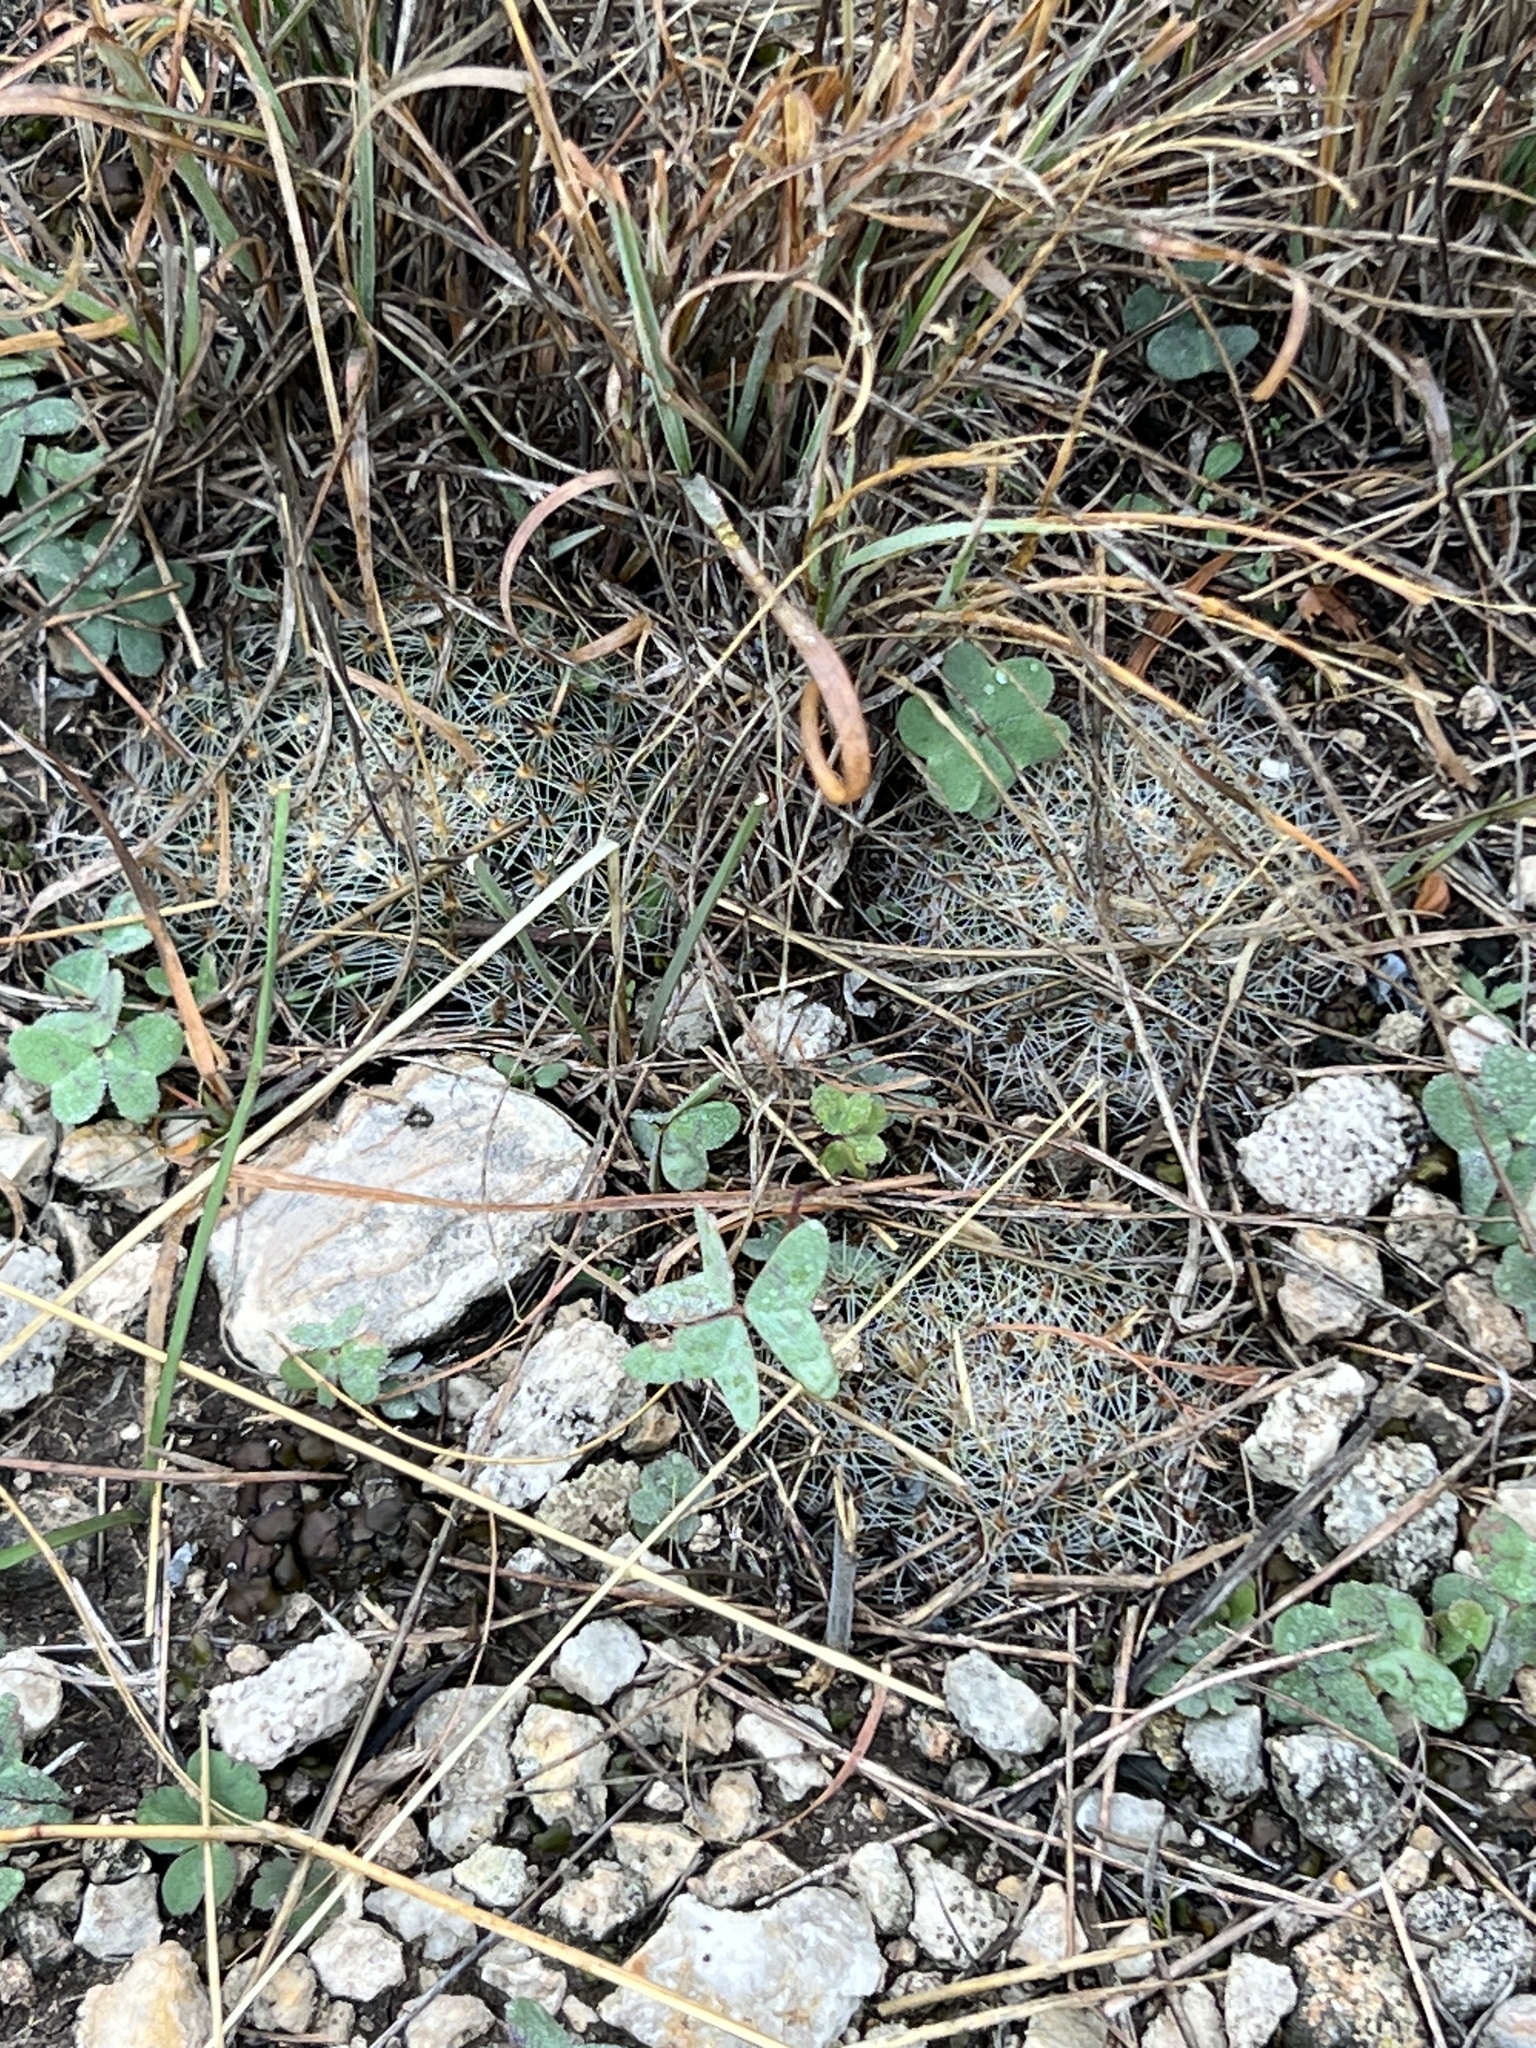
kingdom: Plantae
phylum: Tracheophyta
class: Magnoliopsida
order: Caryophyllales
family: Cactaceae
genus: Mammillaria
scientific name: Mammillaria heyderi
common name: Little nipple cactus
